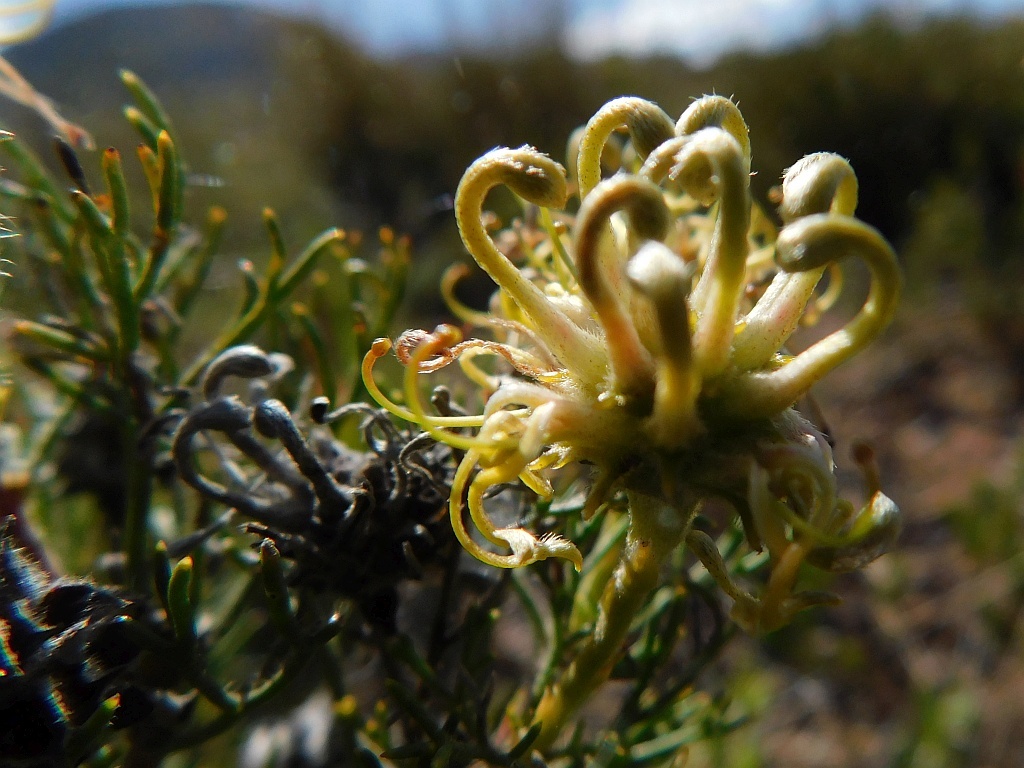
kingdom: Plantae
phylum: Tracheophyta
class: Magnoliopsida
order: Proteales
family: Proteaceae
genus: Serruria
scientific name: Serruria
